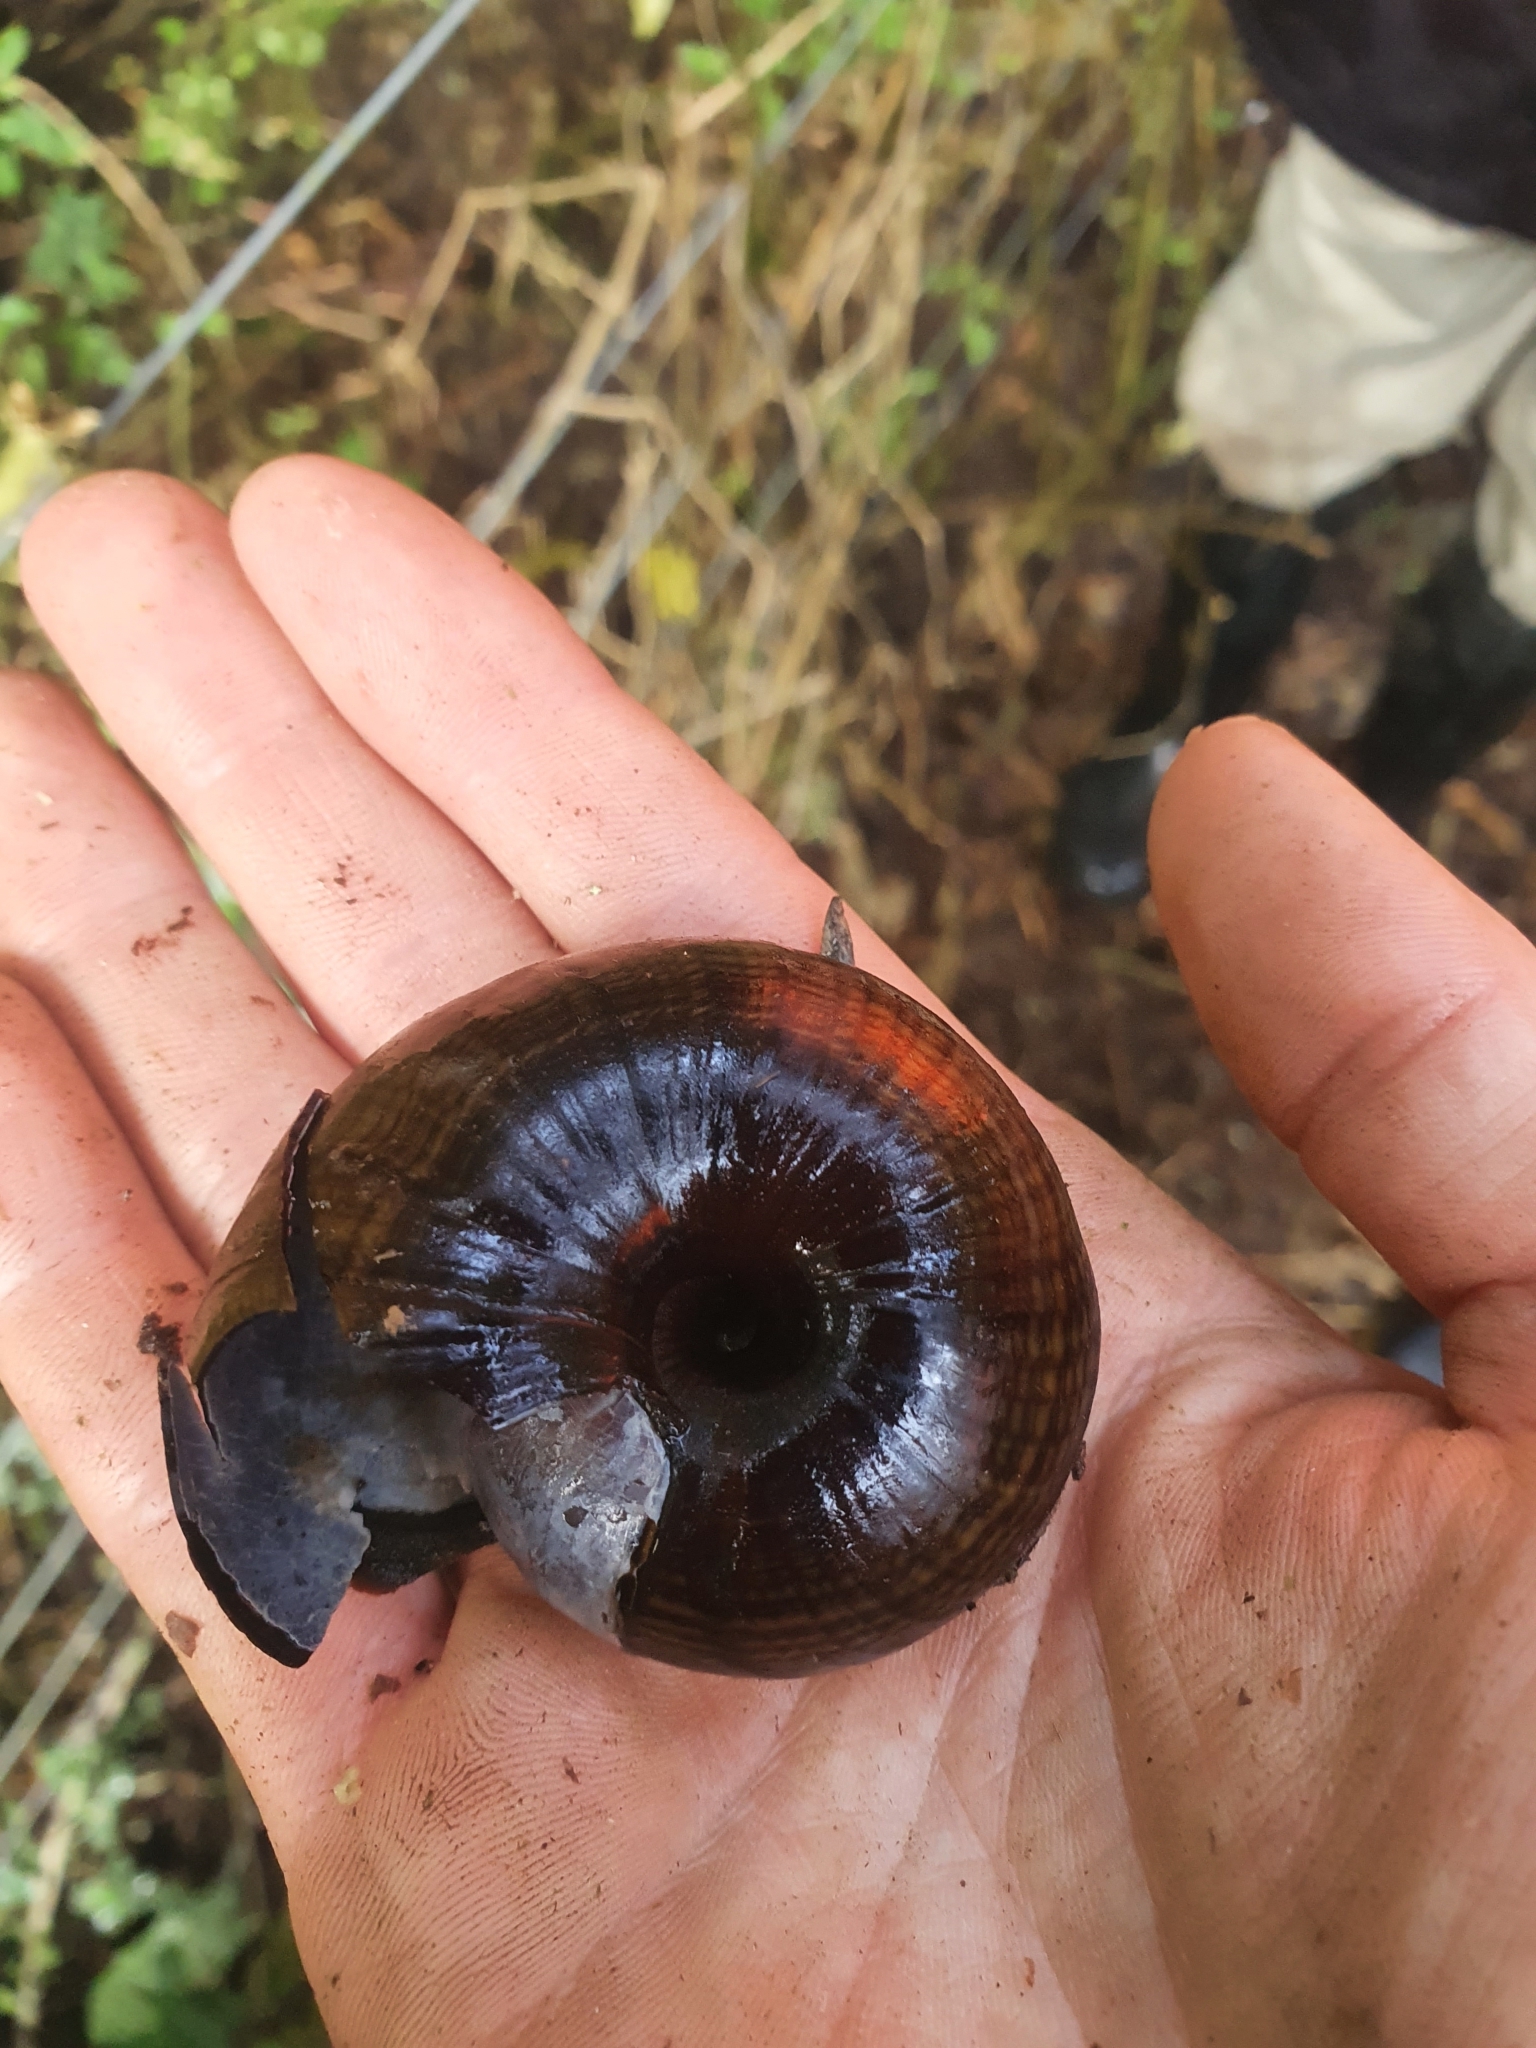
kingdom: Animalia
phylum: Mollusca
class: Gastropoda
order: Stylommatophora
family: Rhytididae
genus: Powelliphanta
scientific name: Powelliphanta hochstetteri
